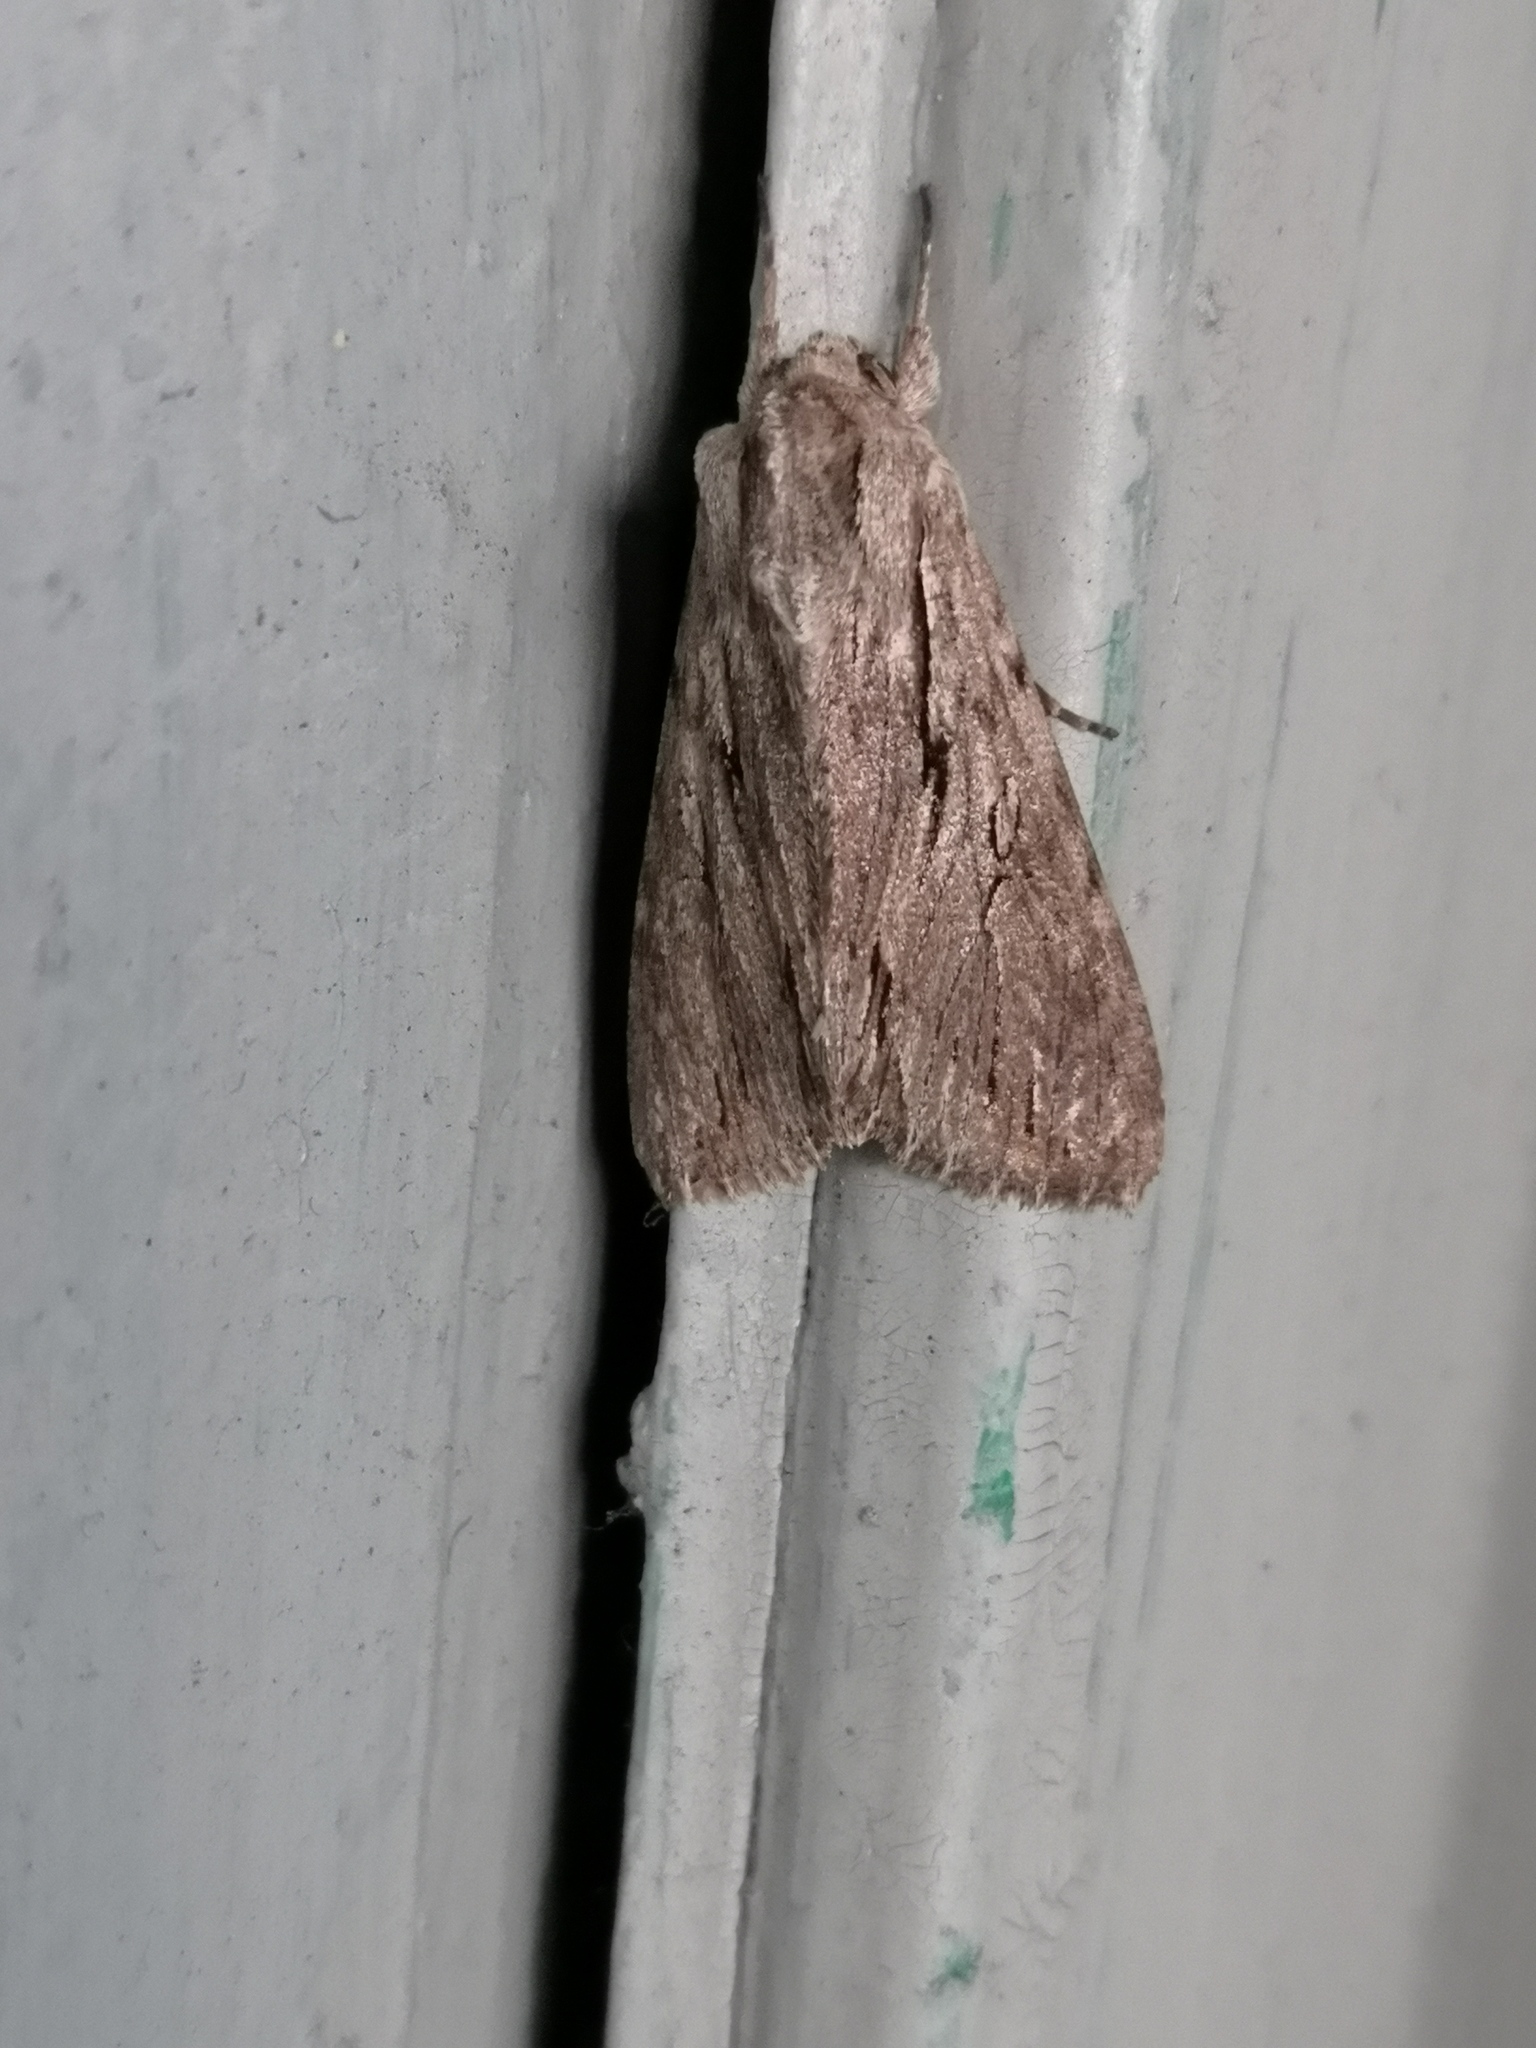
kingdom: Animalia
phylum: Arthropoda
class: Insecta
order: Lepidoptera
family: Noctuidae
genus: Auchmis
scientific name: Auchmis detersa
